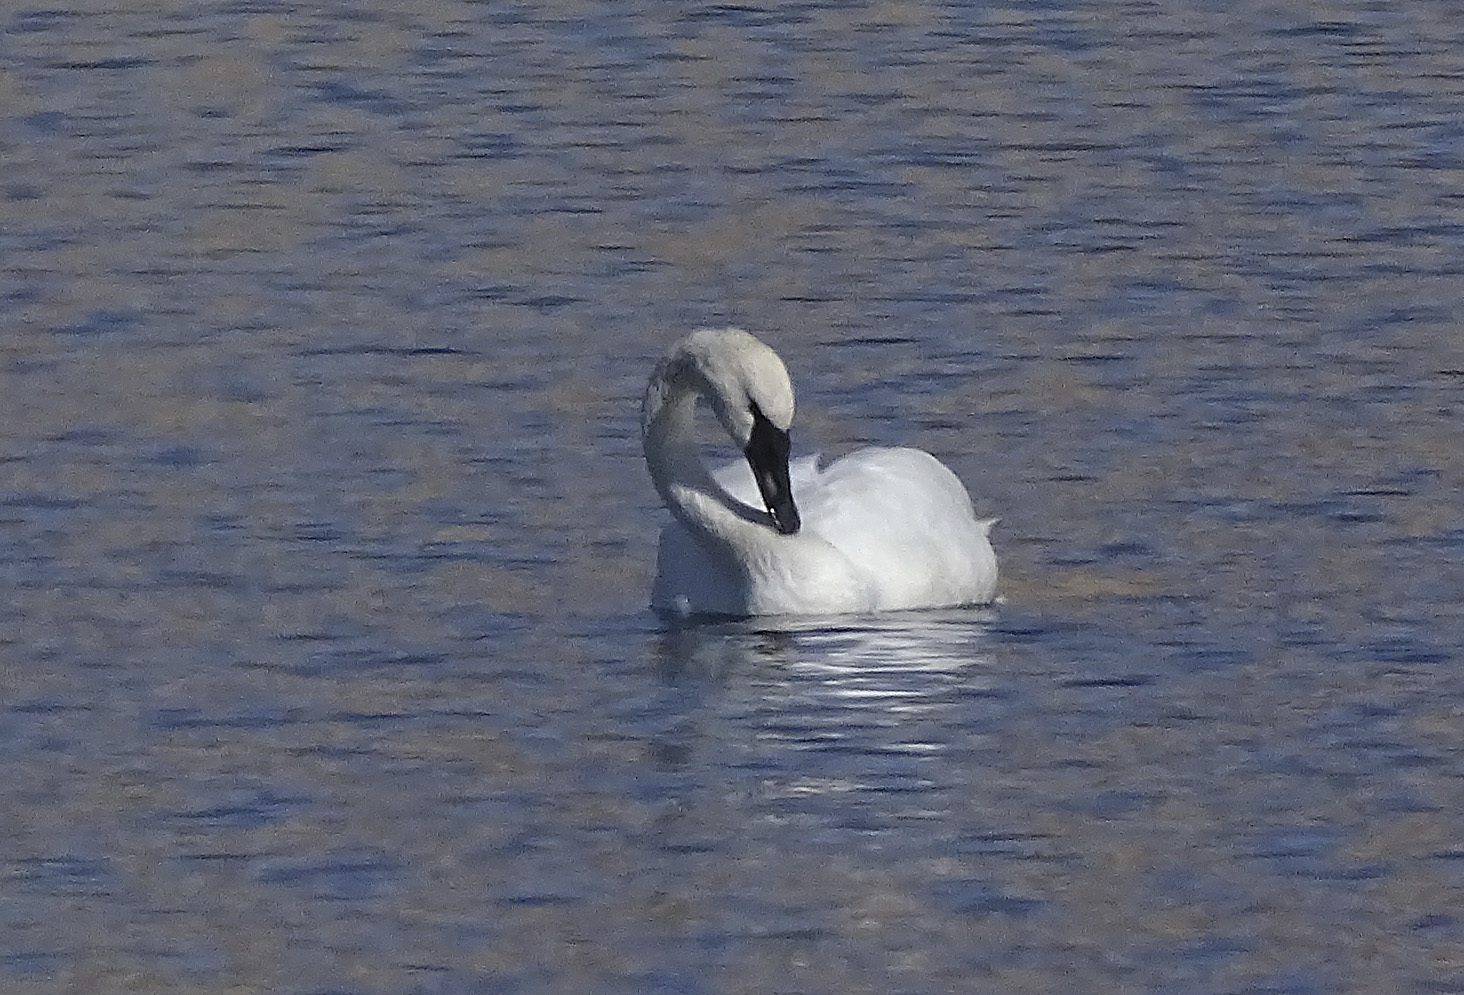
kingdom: Animalia
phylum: Chordata
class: Aves
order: Anseriformes
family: Anatidae
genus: Cygnus
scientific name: Cygnus buccinator
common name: Trumpeter swan
